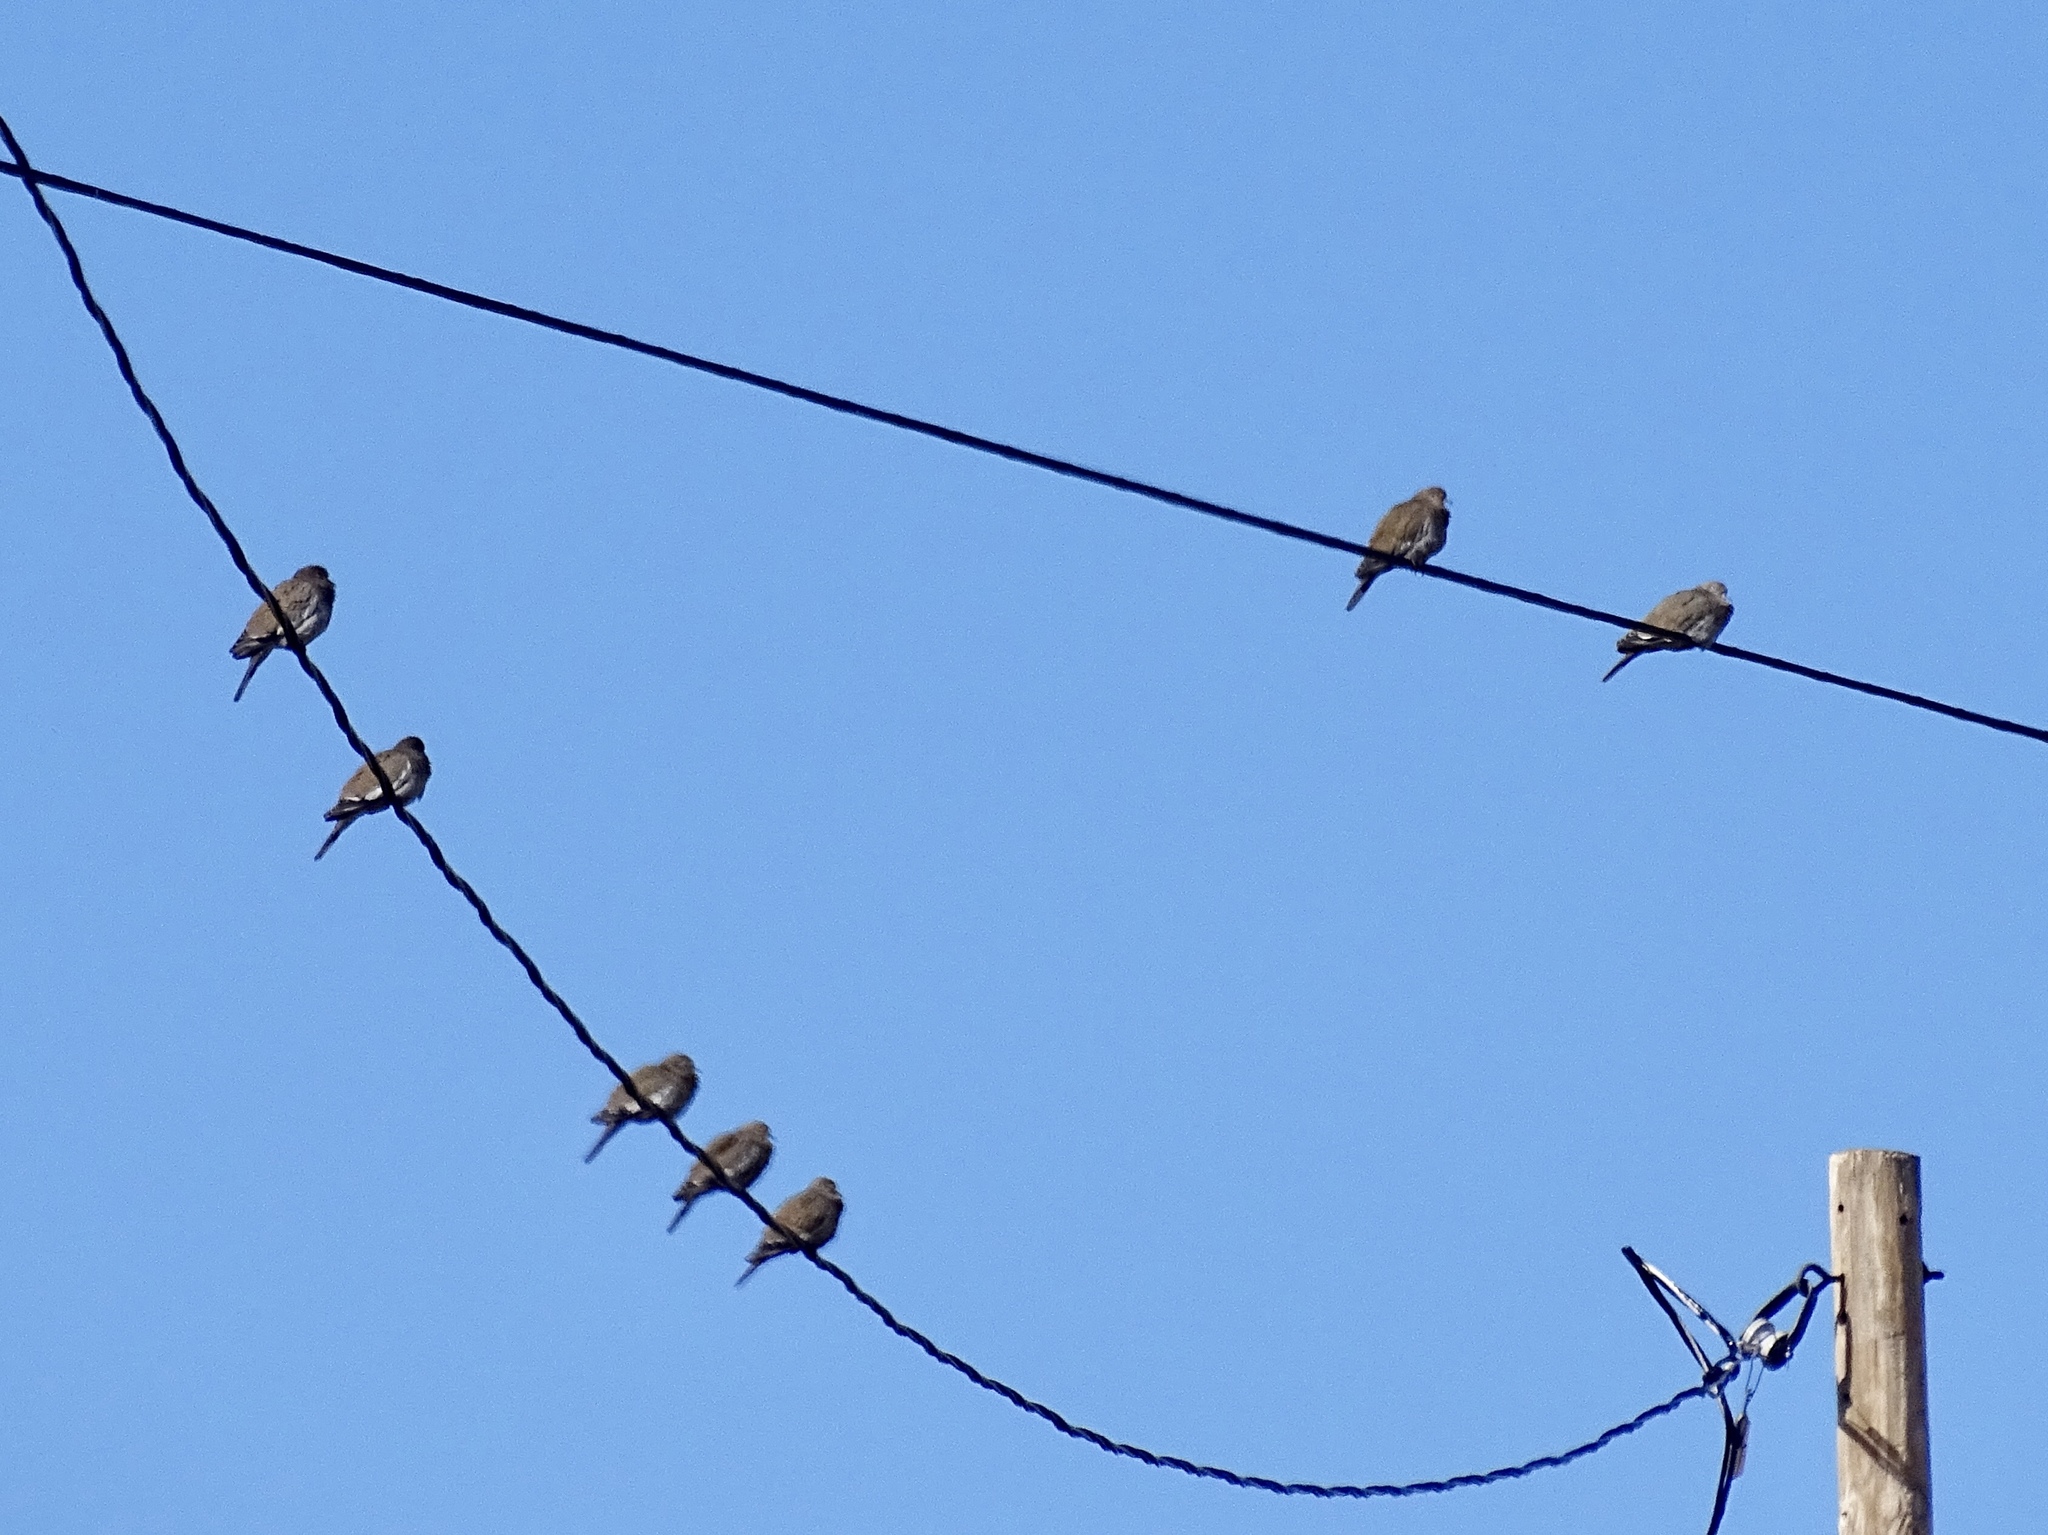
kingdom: Animalia
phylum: Chordata
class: Aves
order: Columbiformes
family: Columbidae
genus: Zenaida
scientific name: Zenaida asiatica
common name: White-winged dove
